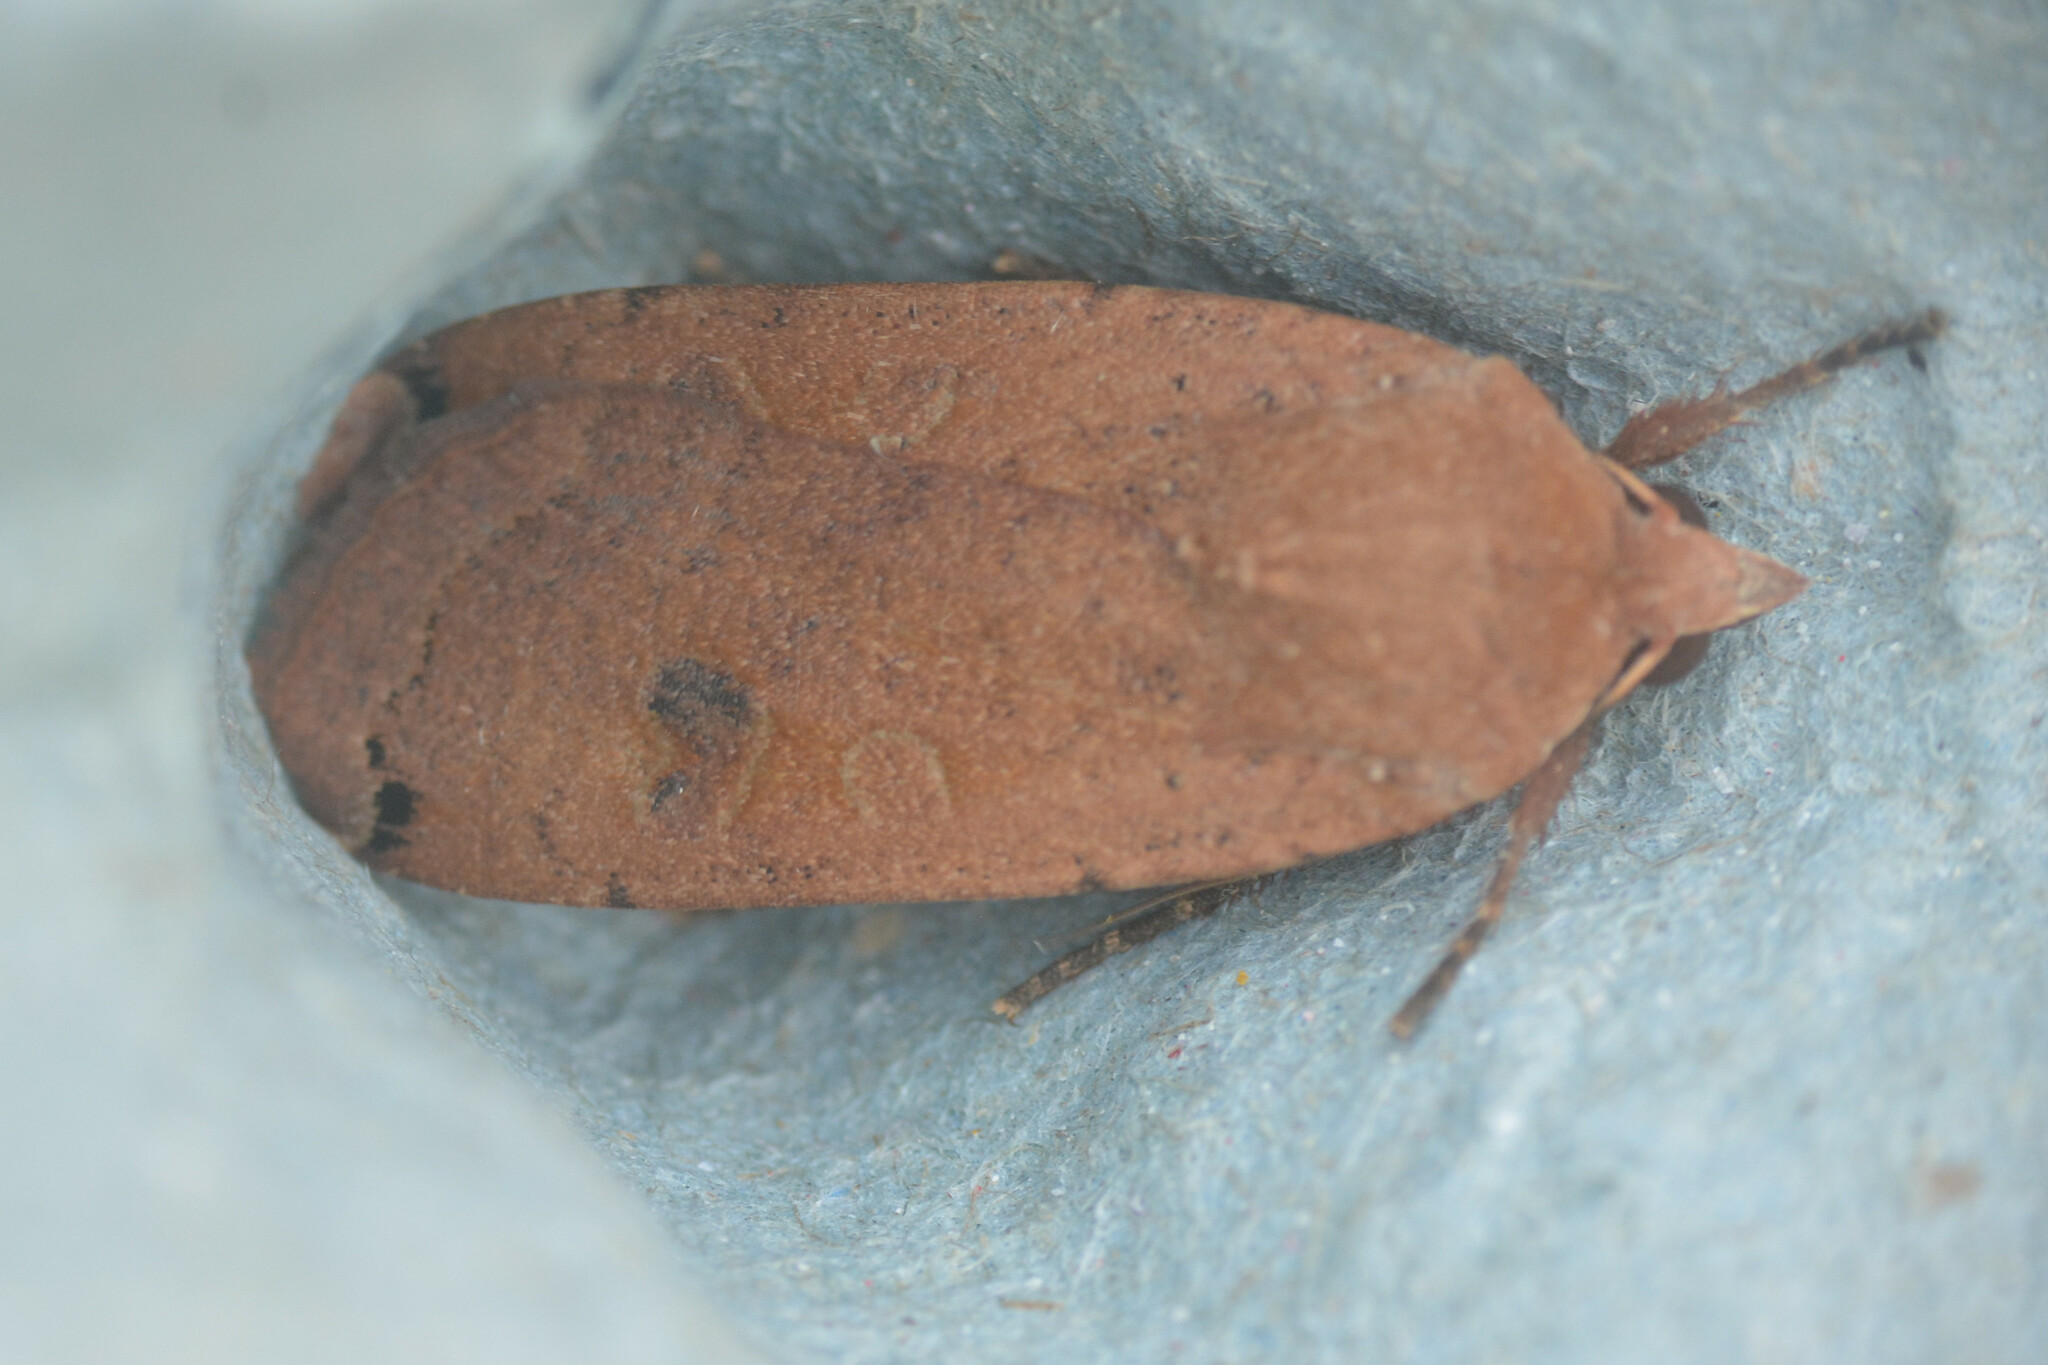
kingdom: Animalia
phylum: Arthropoda
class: Insecta
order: Lepidoptera
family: Noctuidae
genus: Noctua
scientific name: Noctua pronuba
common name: Large yellow underwing
